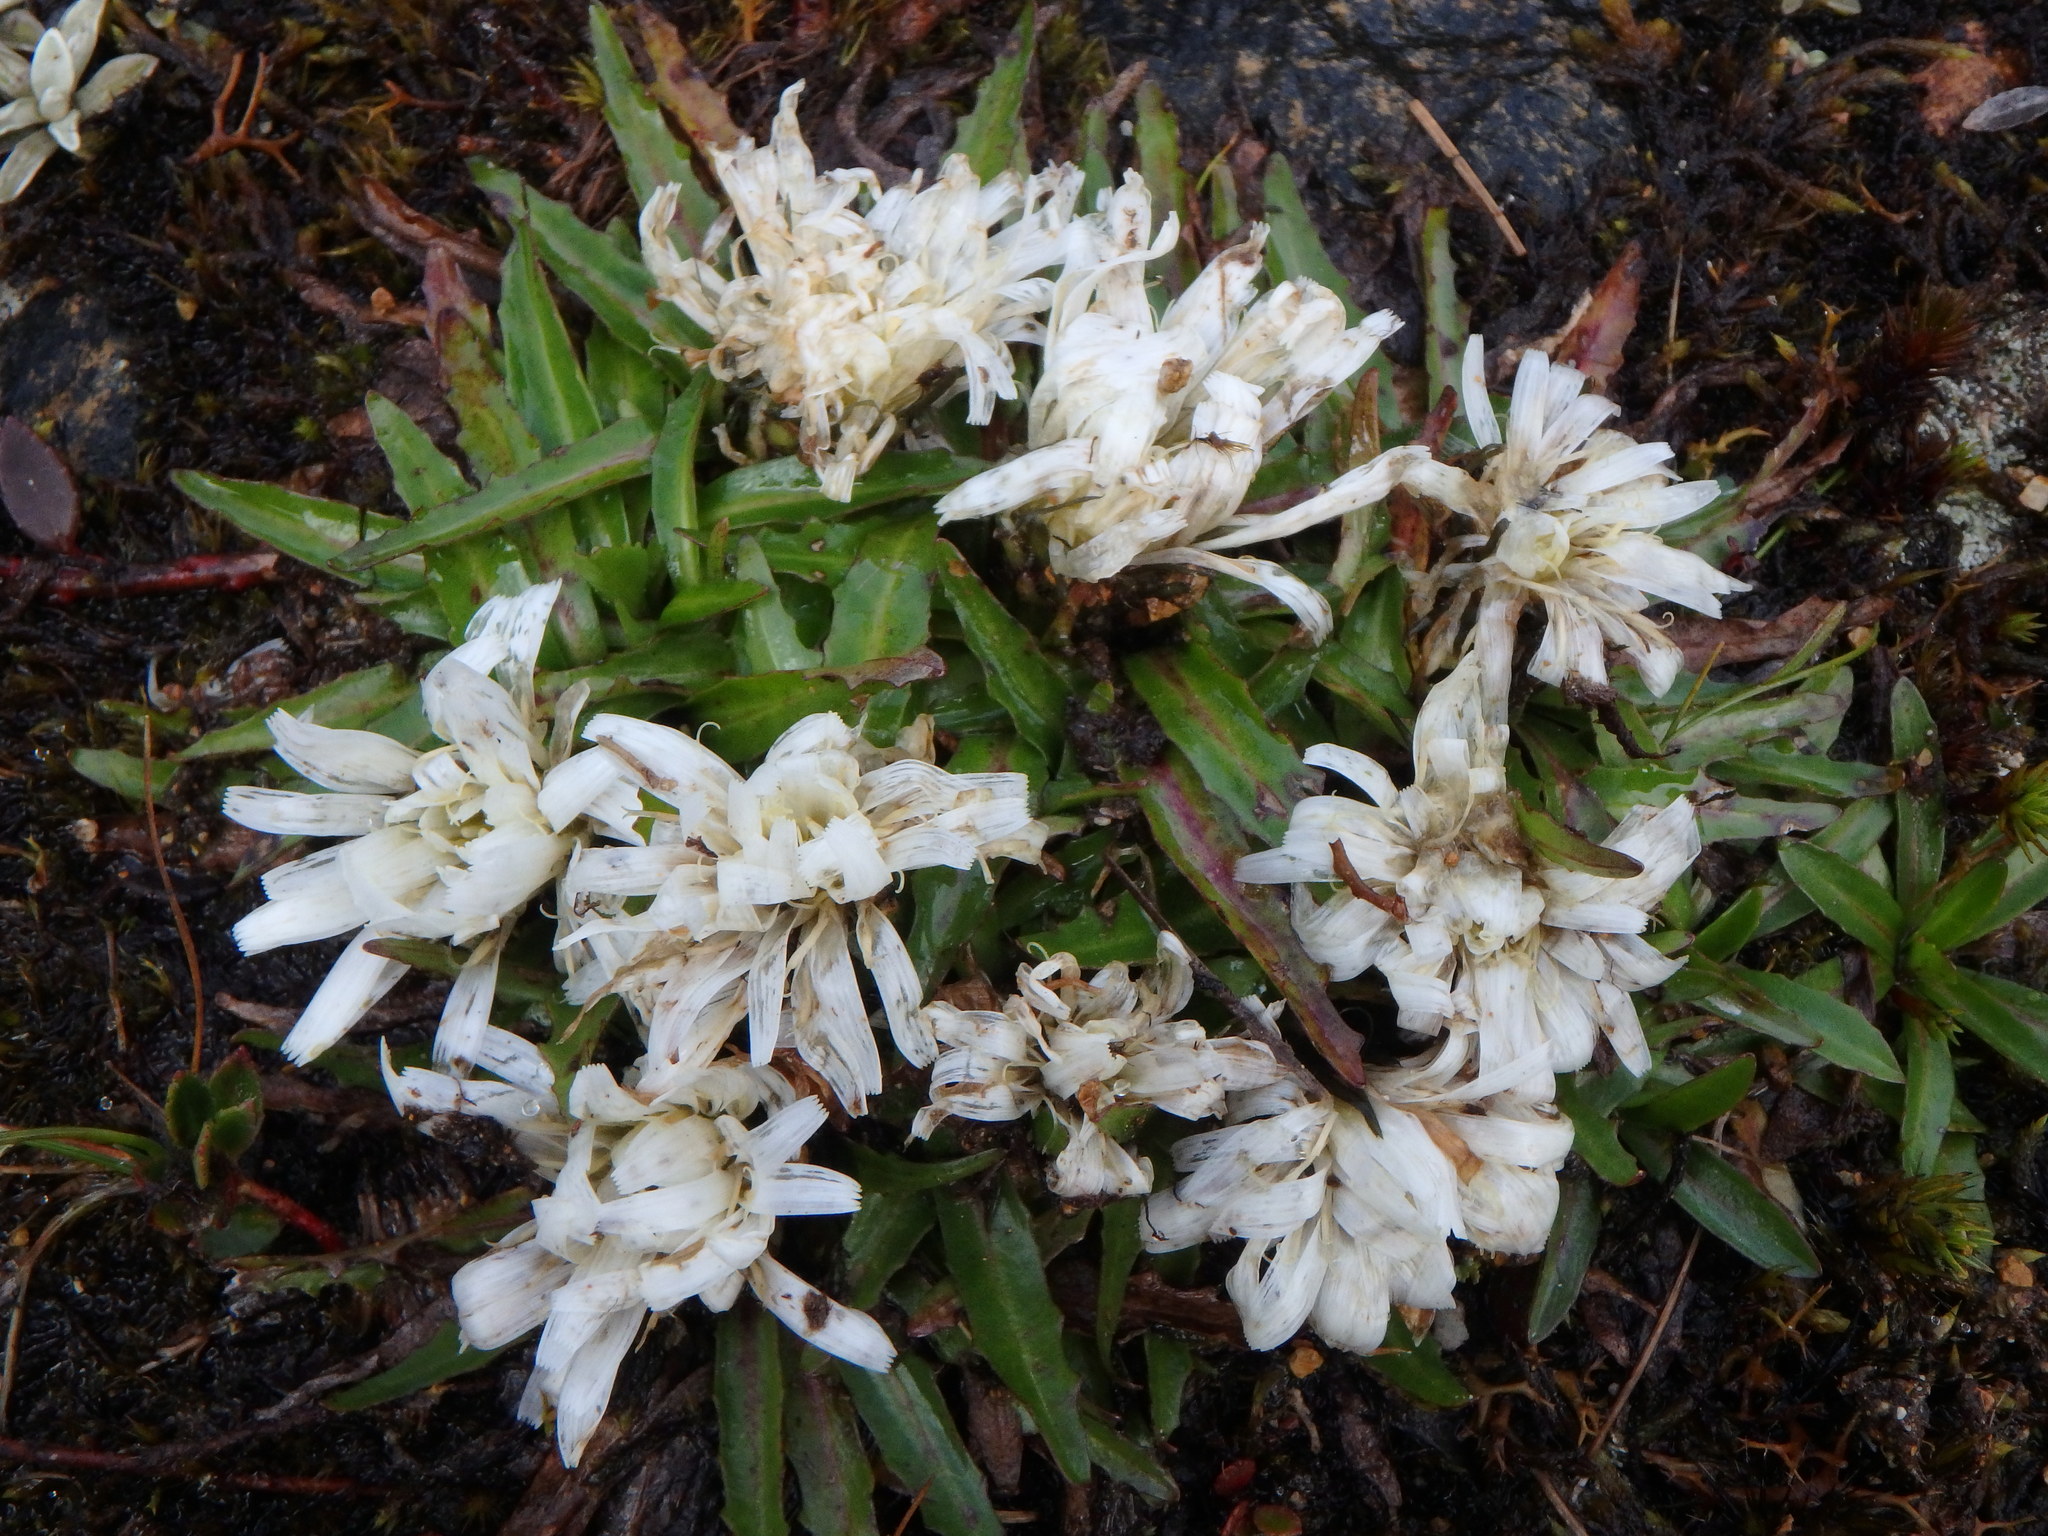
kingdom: Plantae
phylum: Tracheophyta
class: Magnoliopsida
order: Asterales
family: Asteraceae
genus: Hypochaeris
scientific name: Hypochaeris sessiliflora
